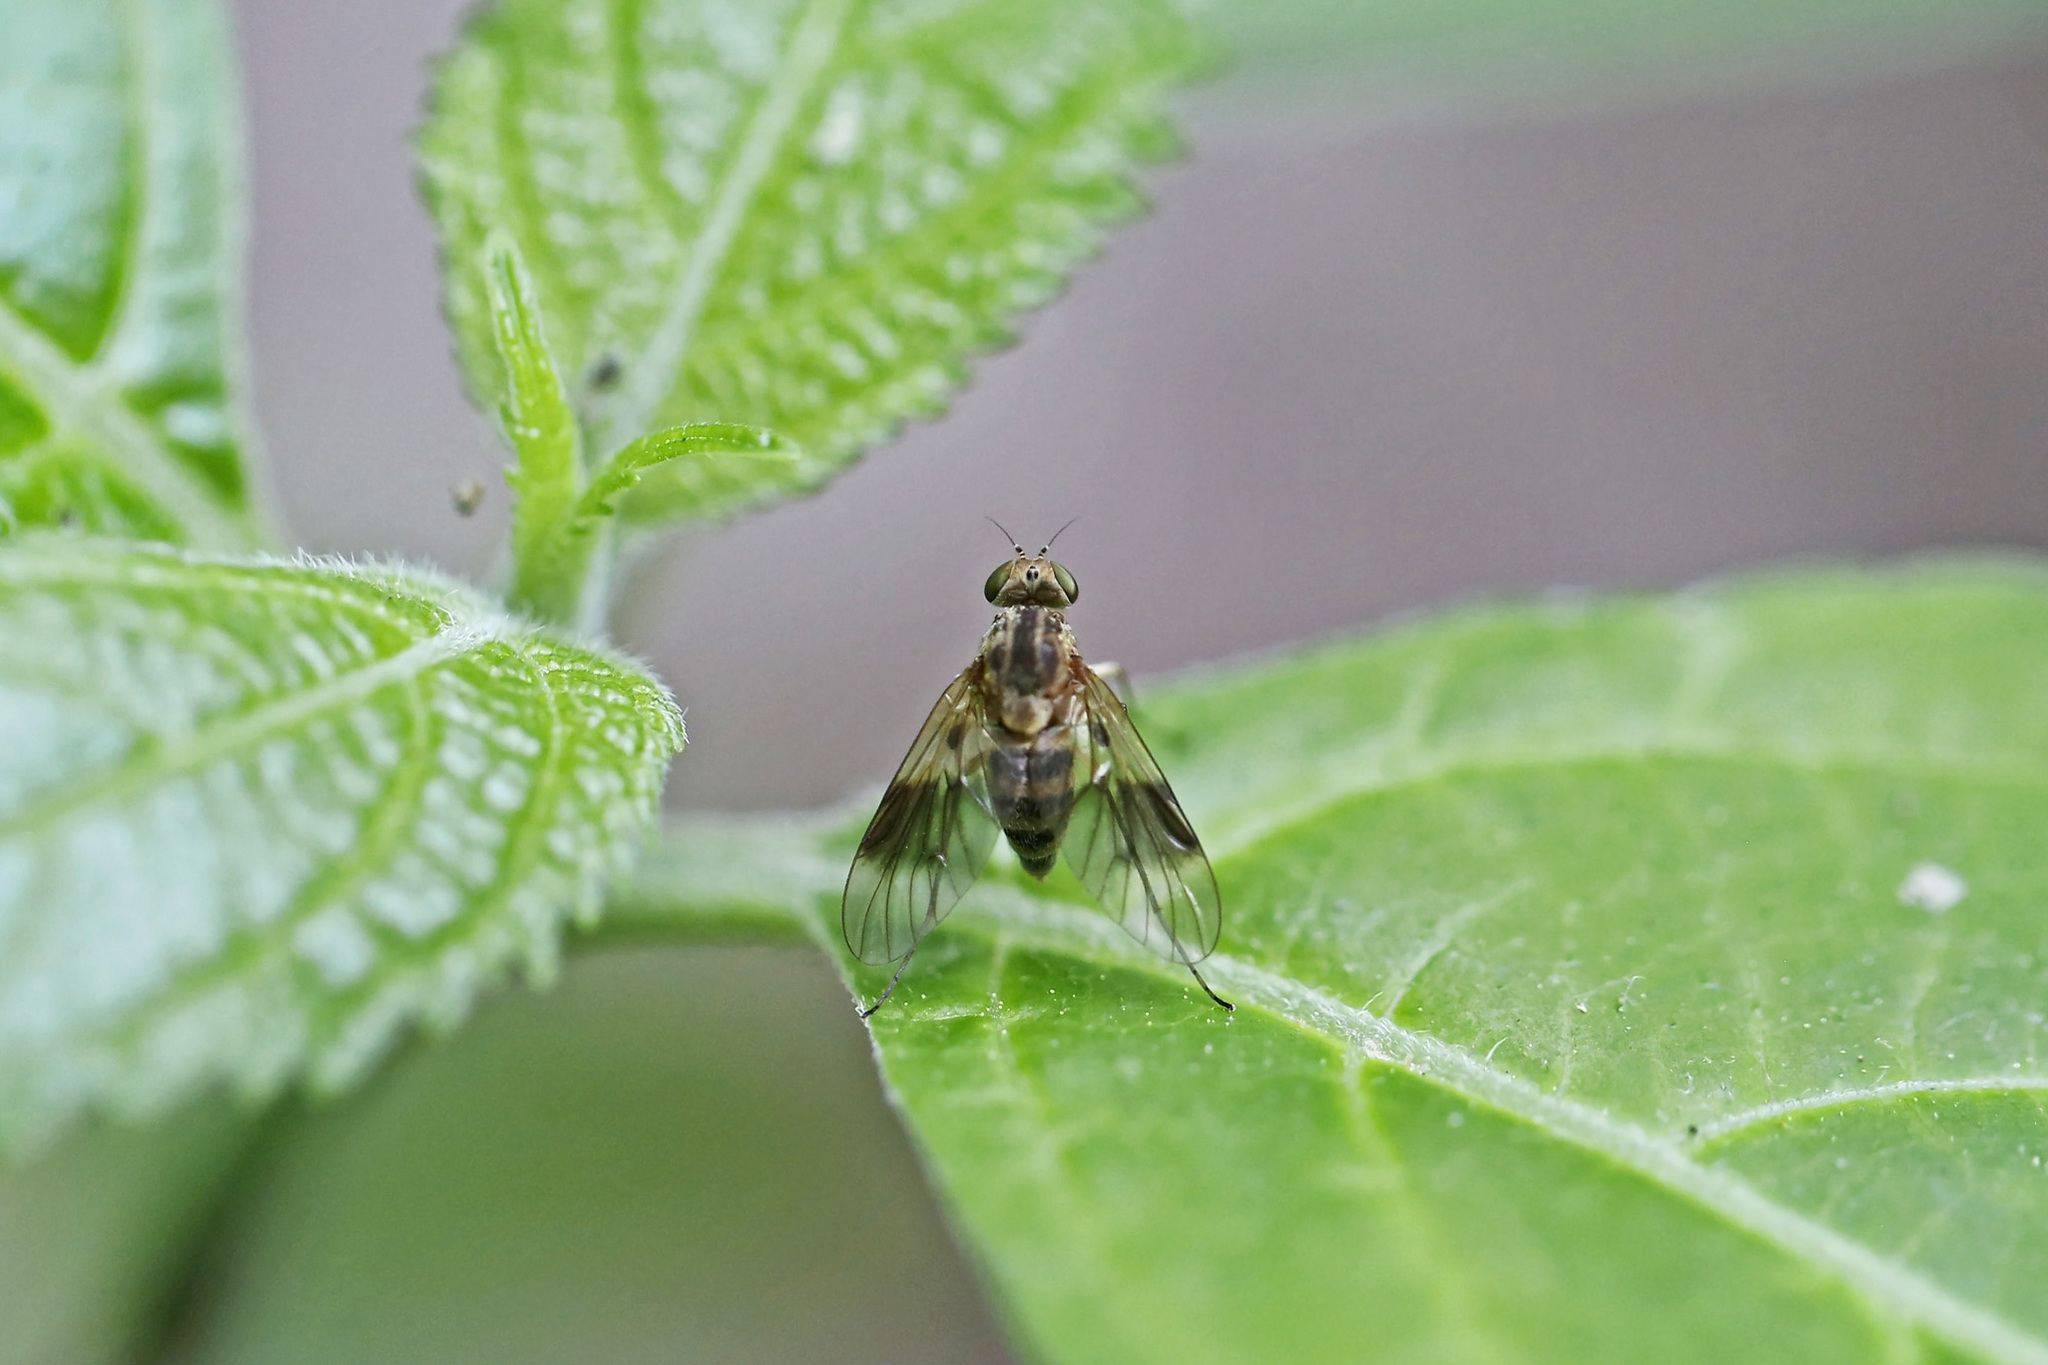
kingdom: Animalia
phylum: Arthropoda
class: Insecta
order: Diptera
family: Rhagionidae
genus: Chrysopilus
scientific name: Chrysopilus quadratus
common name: Quadrate snipe fly
